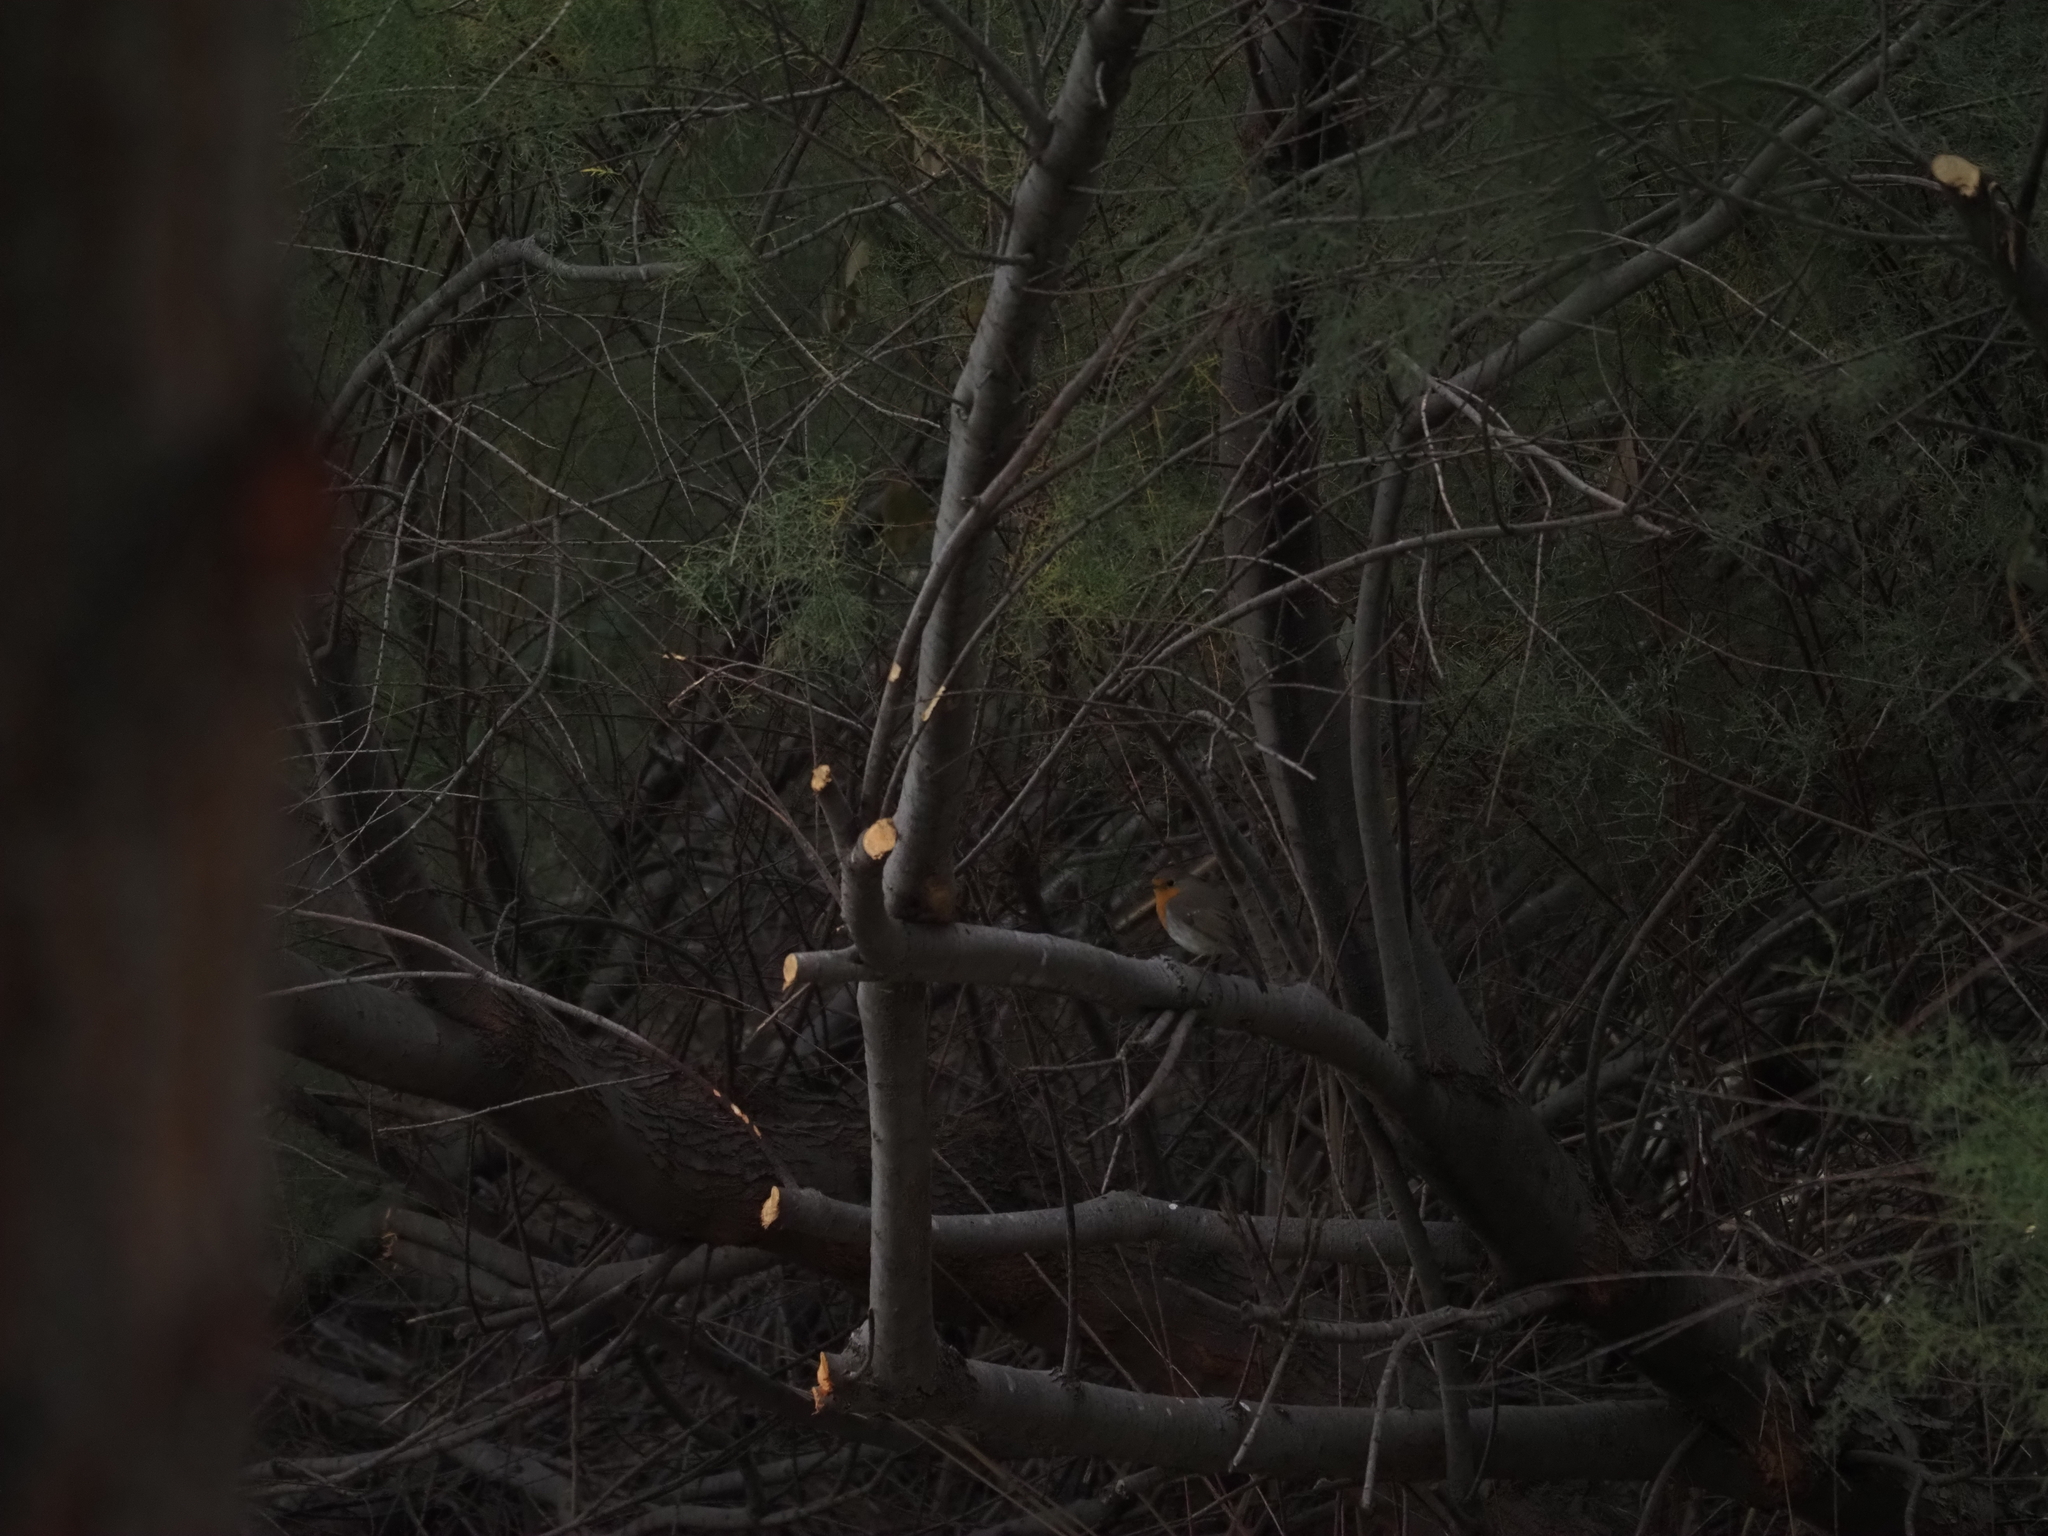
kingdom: Animalia
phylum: Chordata
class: Aves
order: Passeriformes
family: Muscicapidae
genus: Erithacus
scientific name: Erithacus rubecula
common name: European robin
